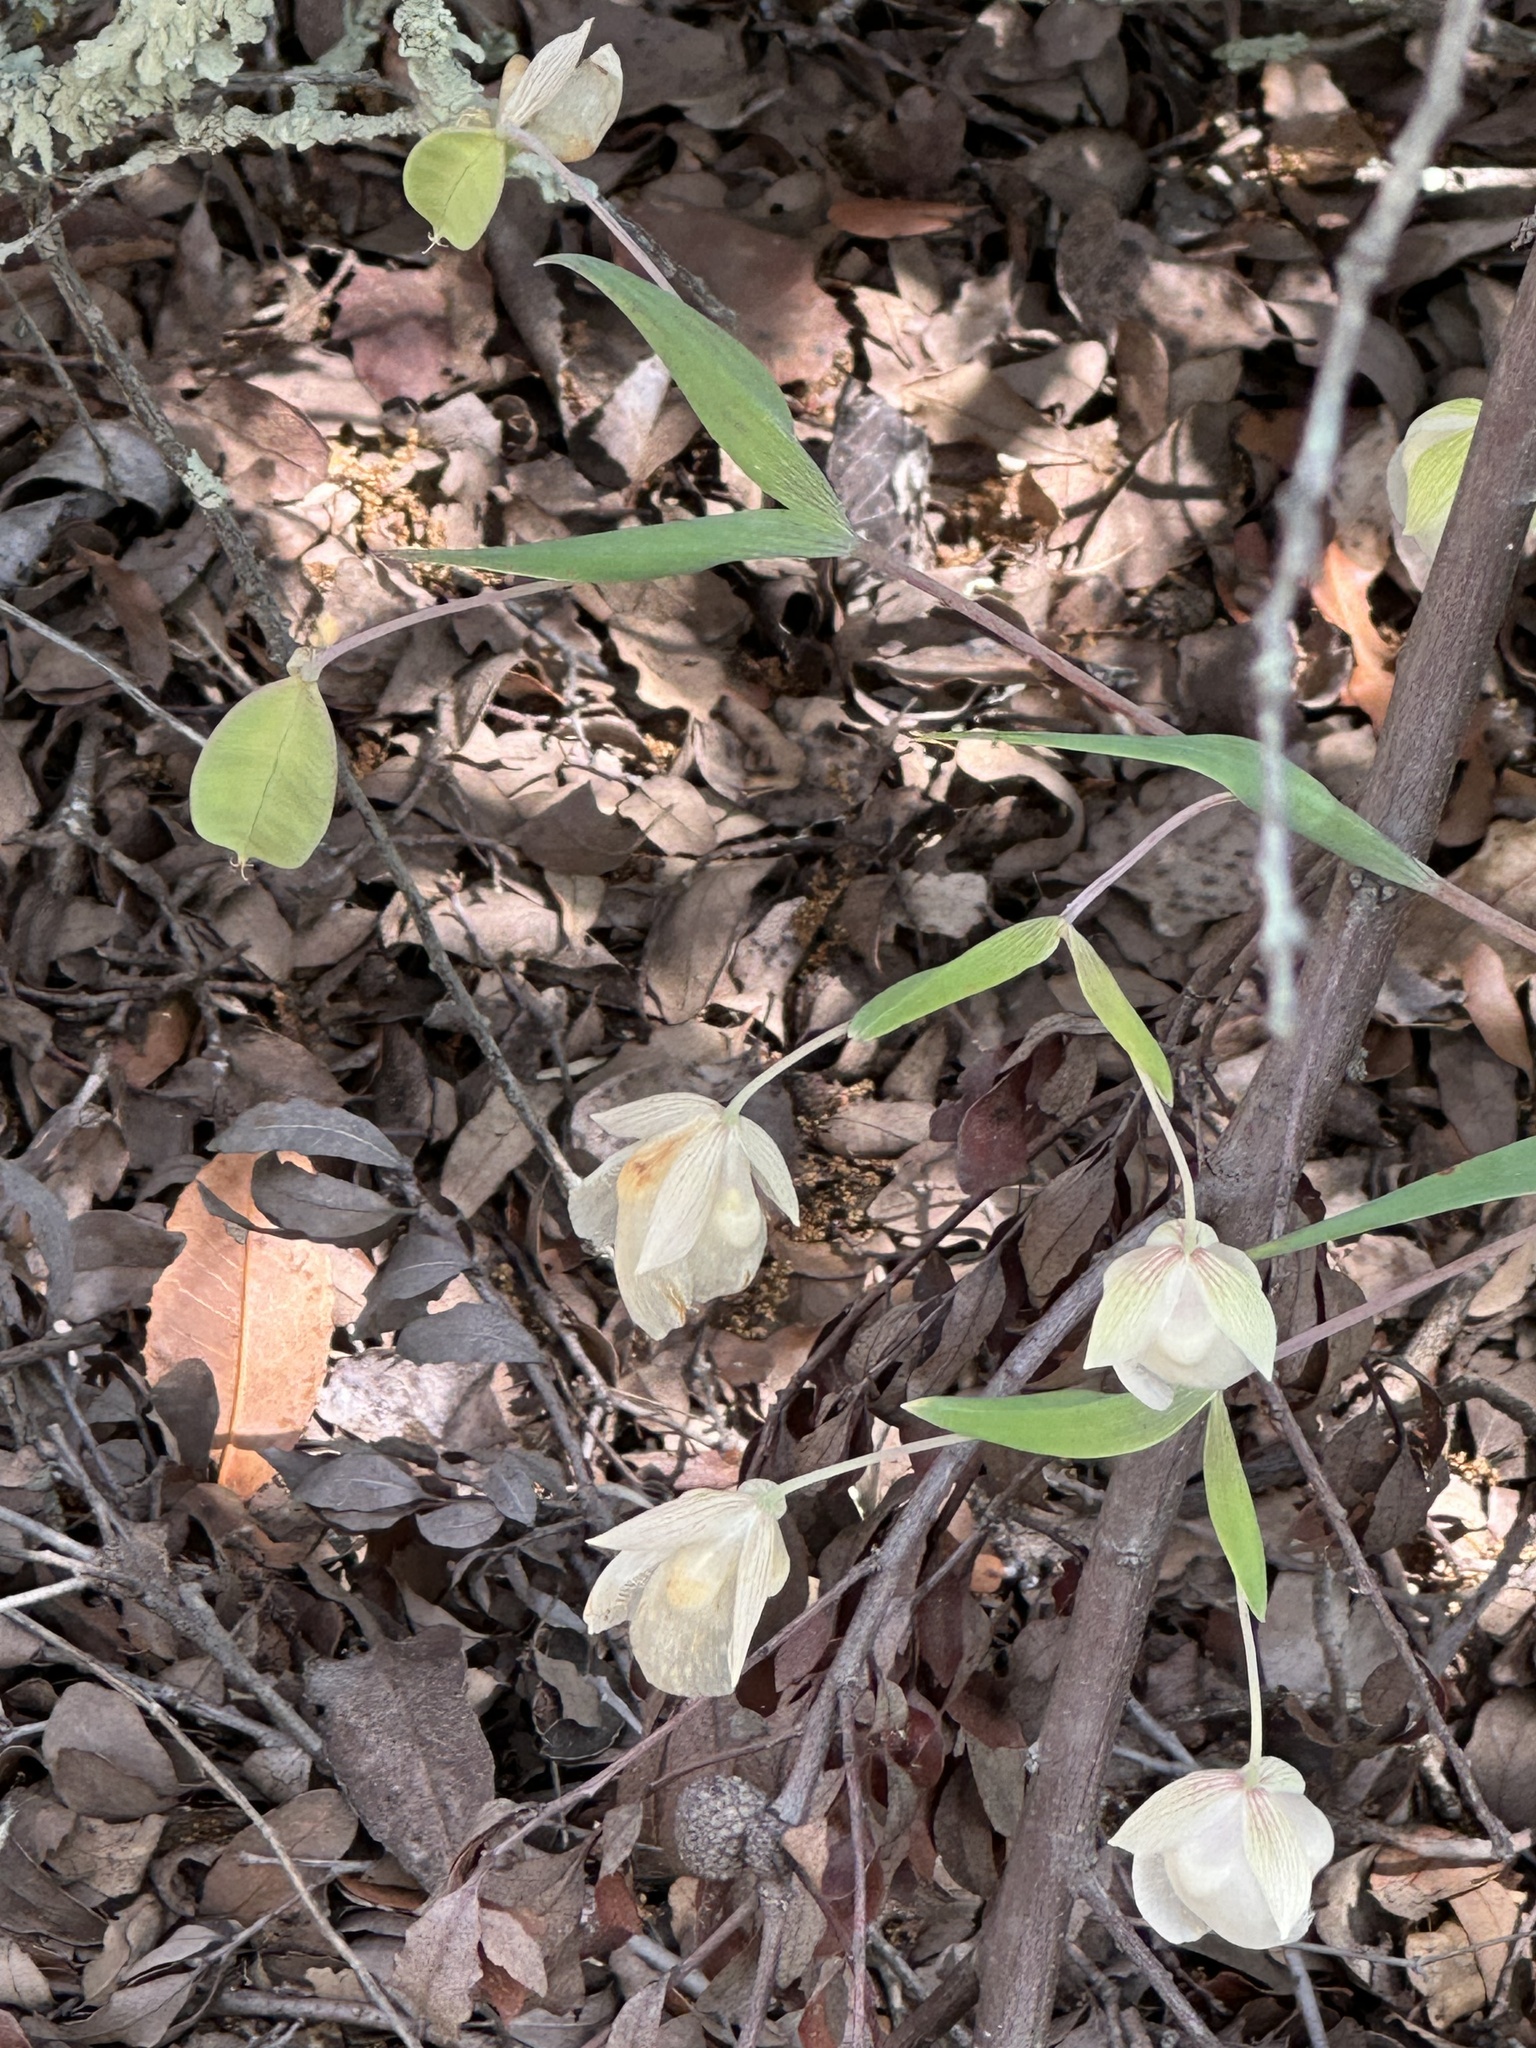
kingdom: Plantae
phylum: Tracheophyta
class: Liliopsida
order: Liliales
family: Liliaceae
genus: Calochortus
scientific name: Calochortus albus
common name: Fairy-lantern
